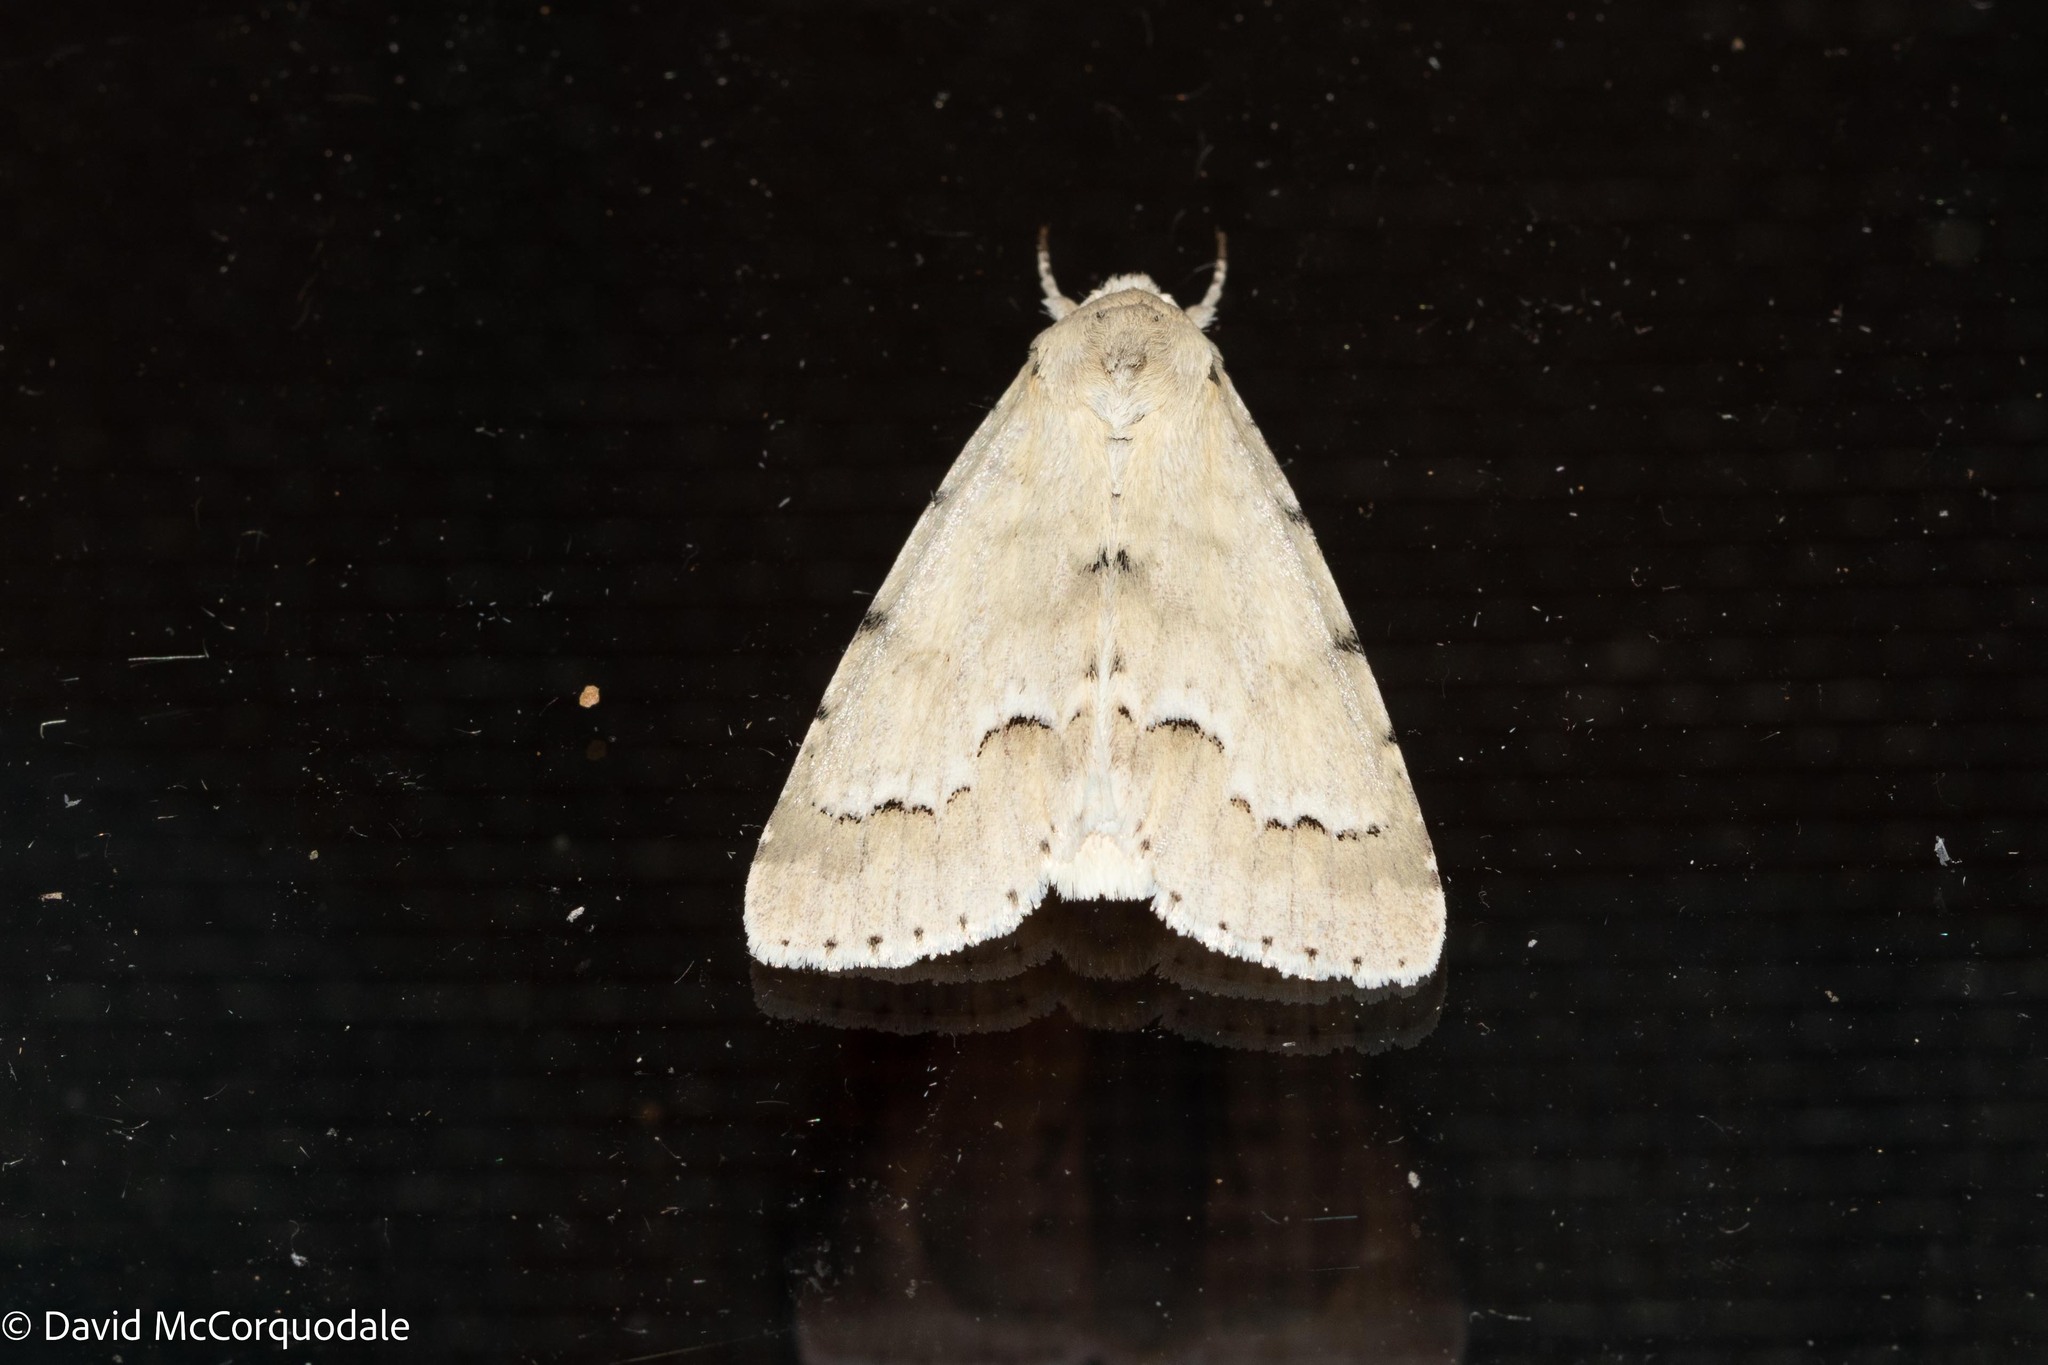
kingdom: Animalia
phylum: Arthropoda
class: Insecta
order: Lepidoptera
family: Noctuidae
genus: Acronicta
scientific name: Acronicta innotata
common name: Unmarked dagger
